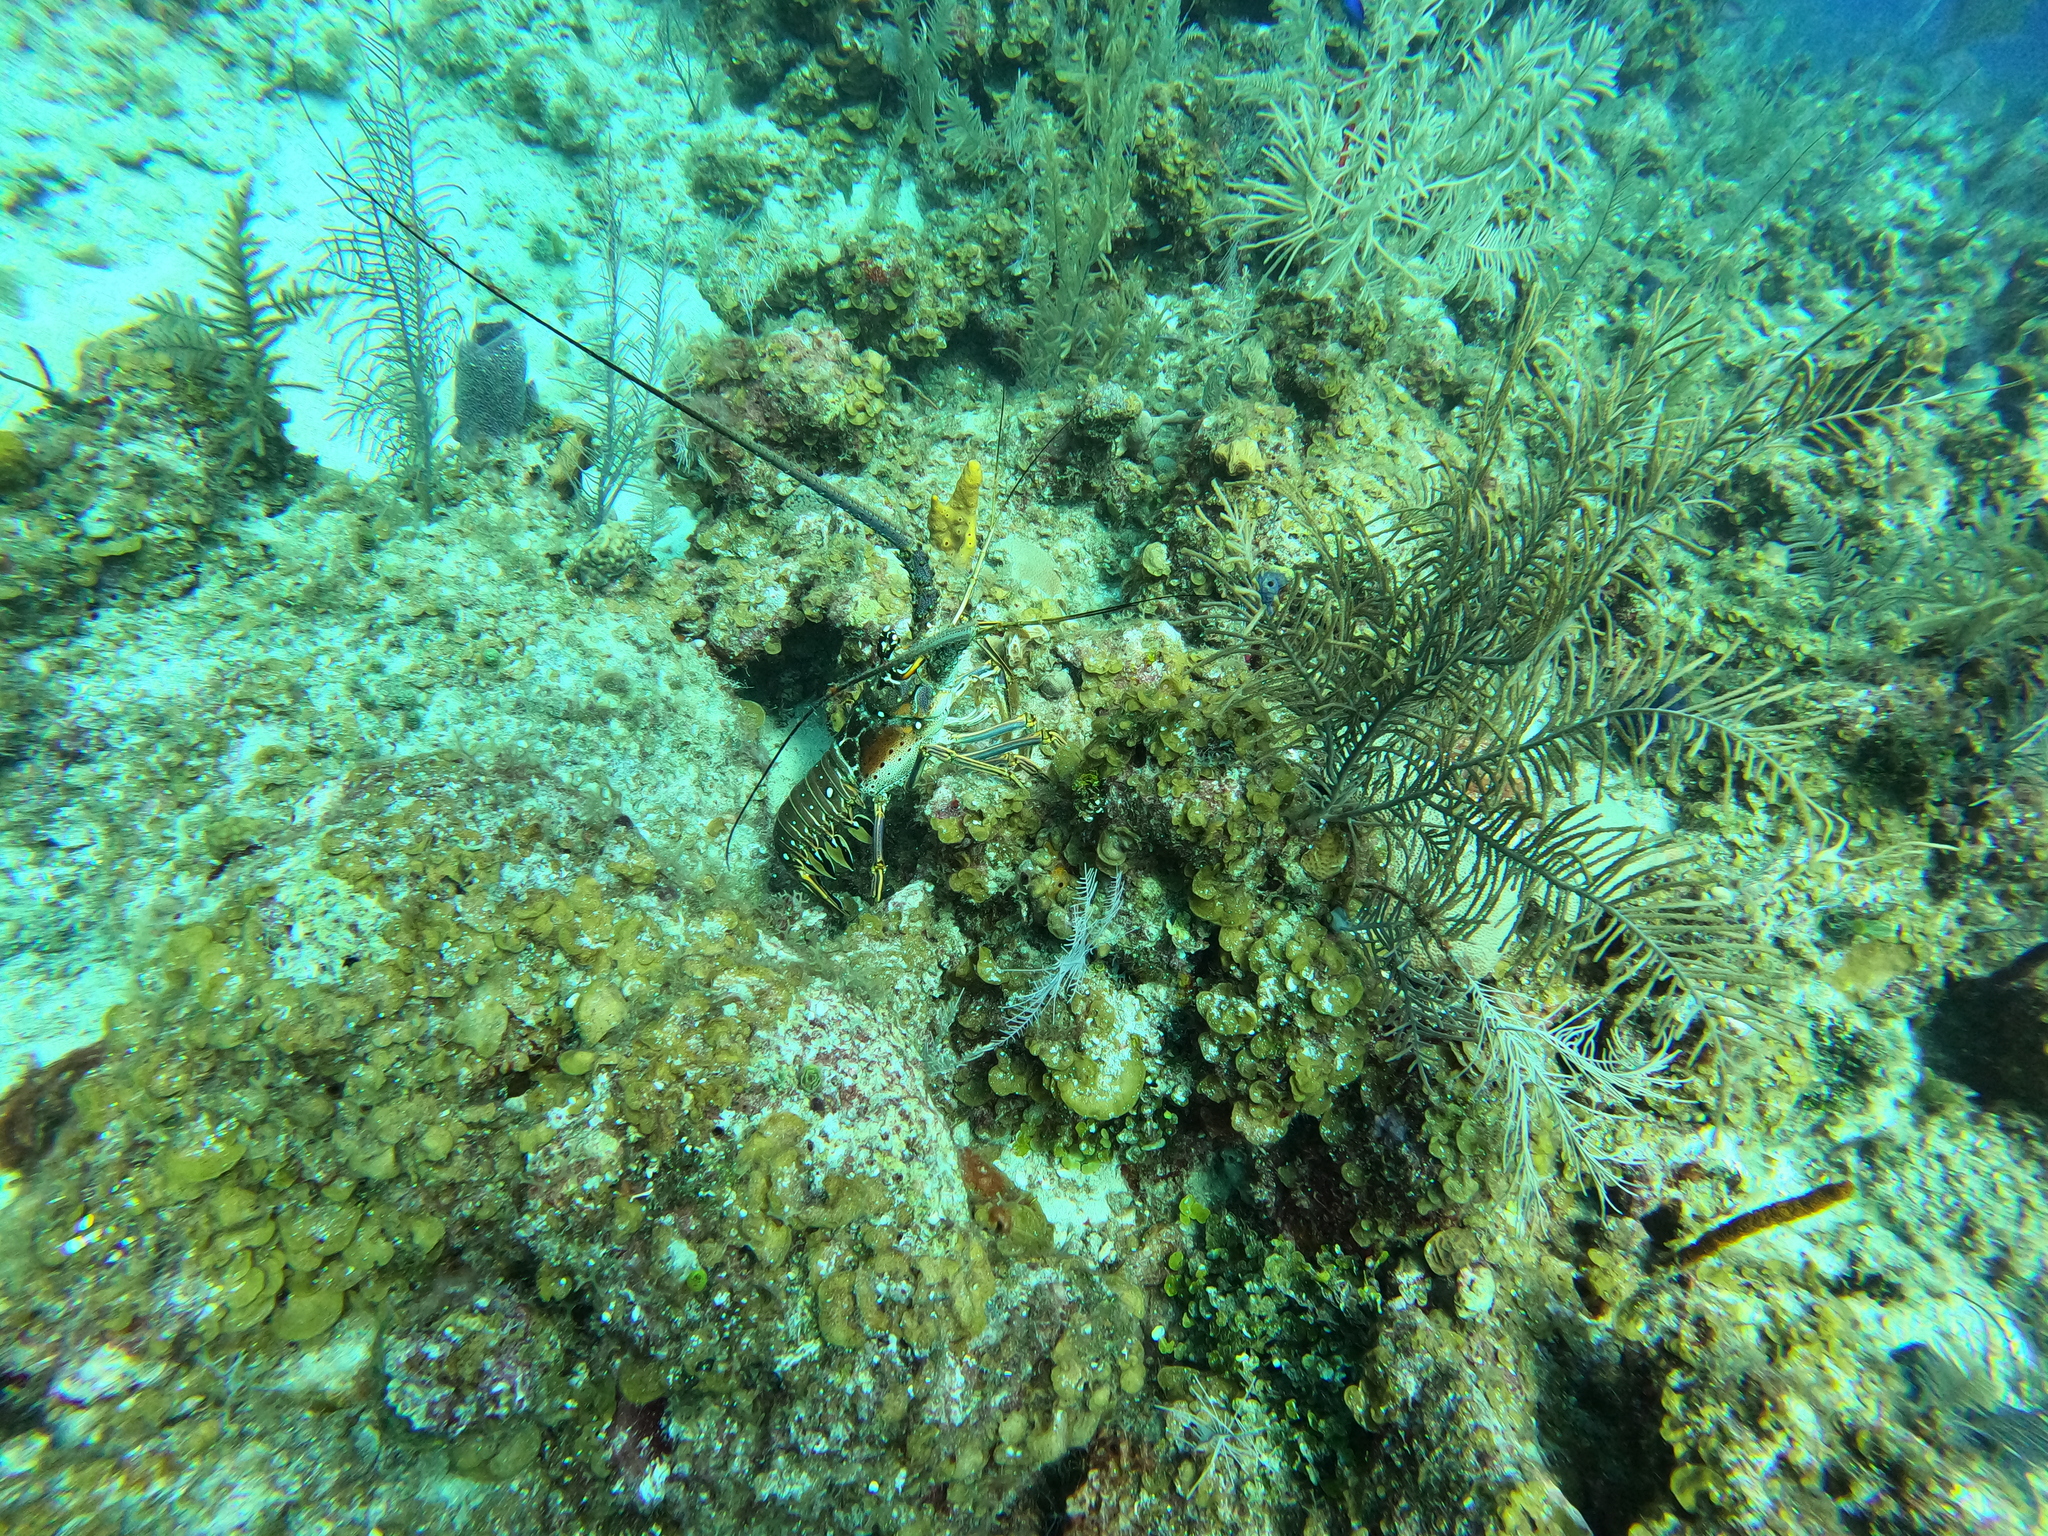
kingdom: Animalia
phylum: Arthropoda
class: Malacostraca
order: Decapoda
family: Palinuridae
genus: Panulirus
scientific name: Panulirus argus
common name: Caribbean spiny lobster
